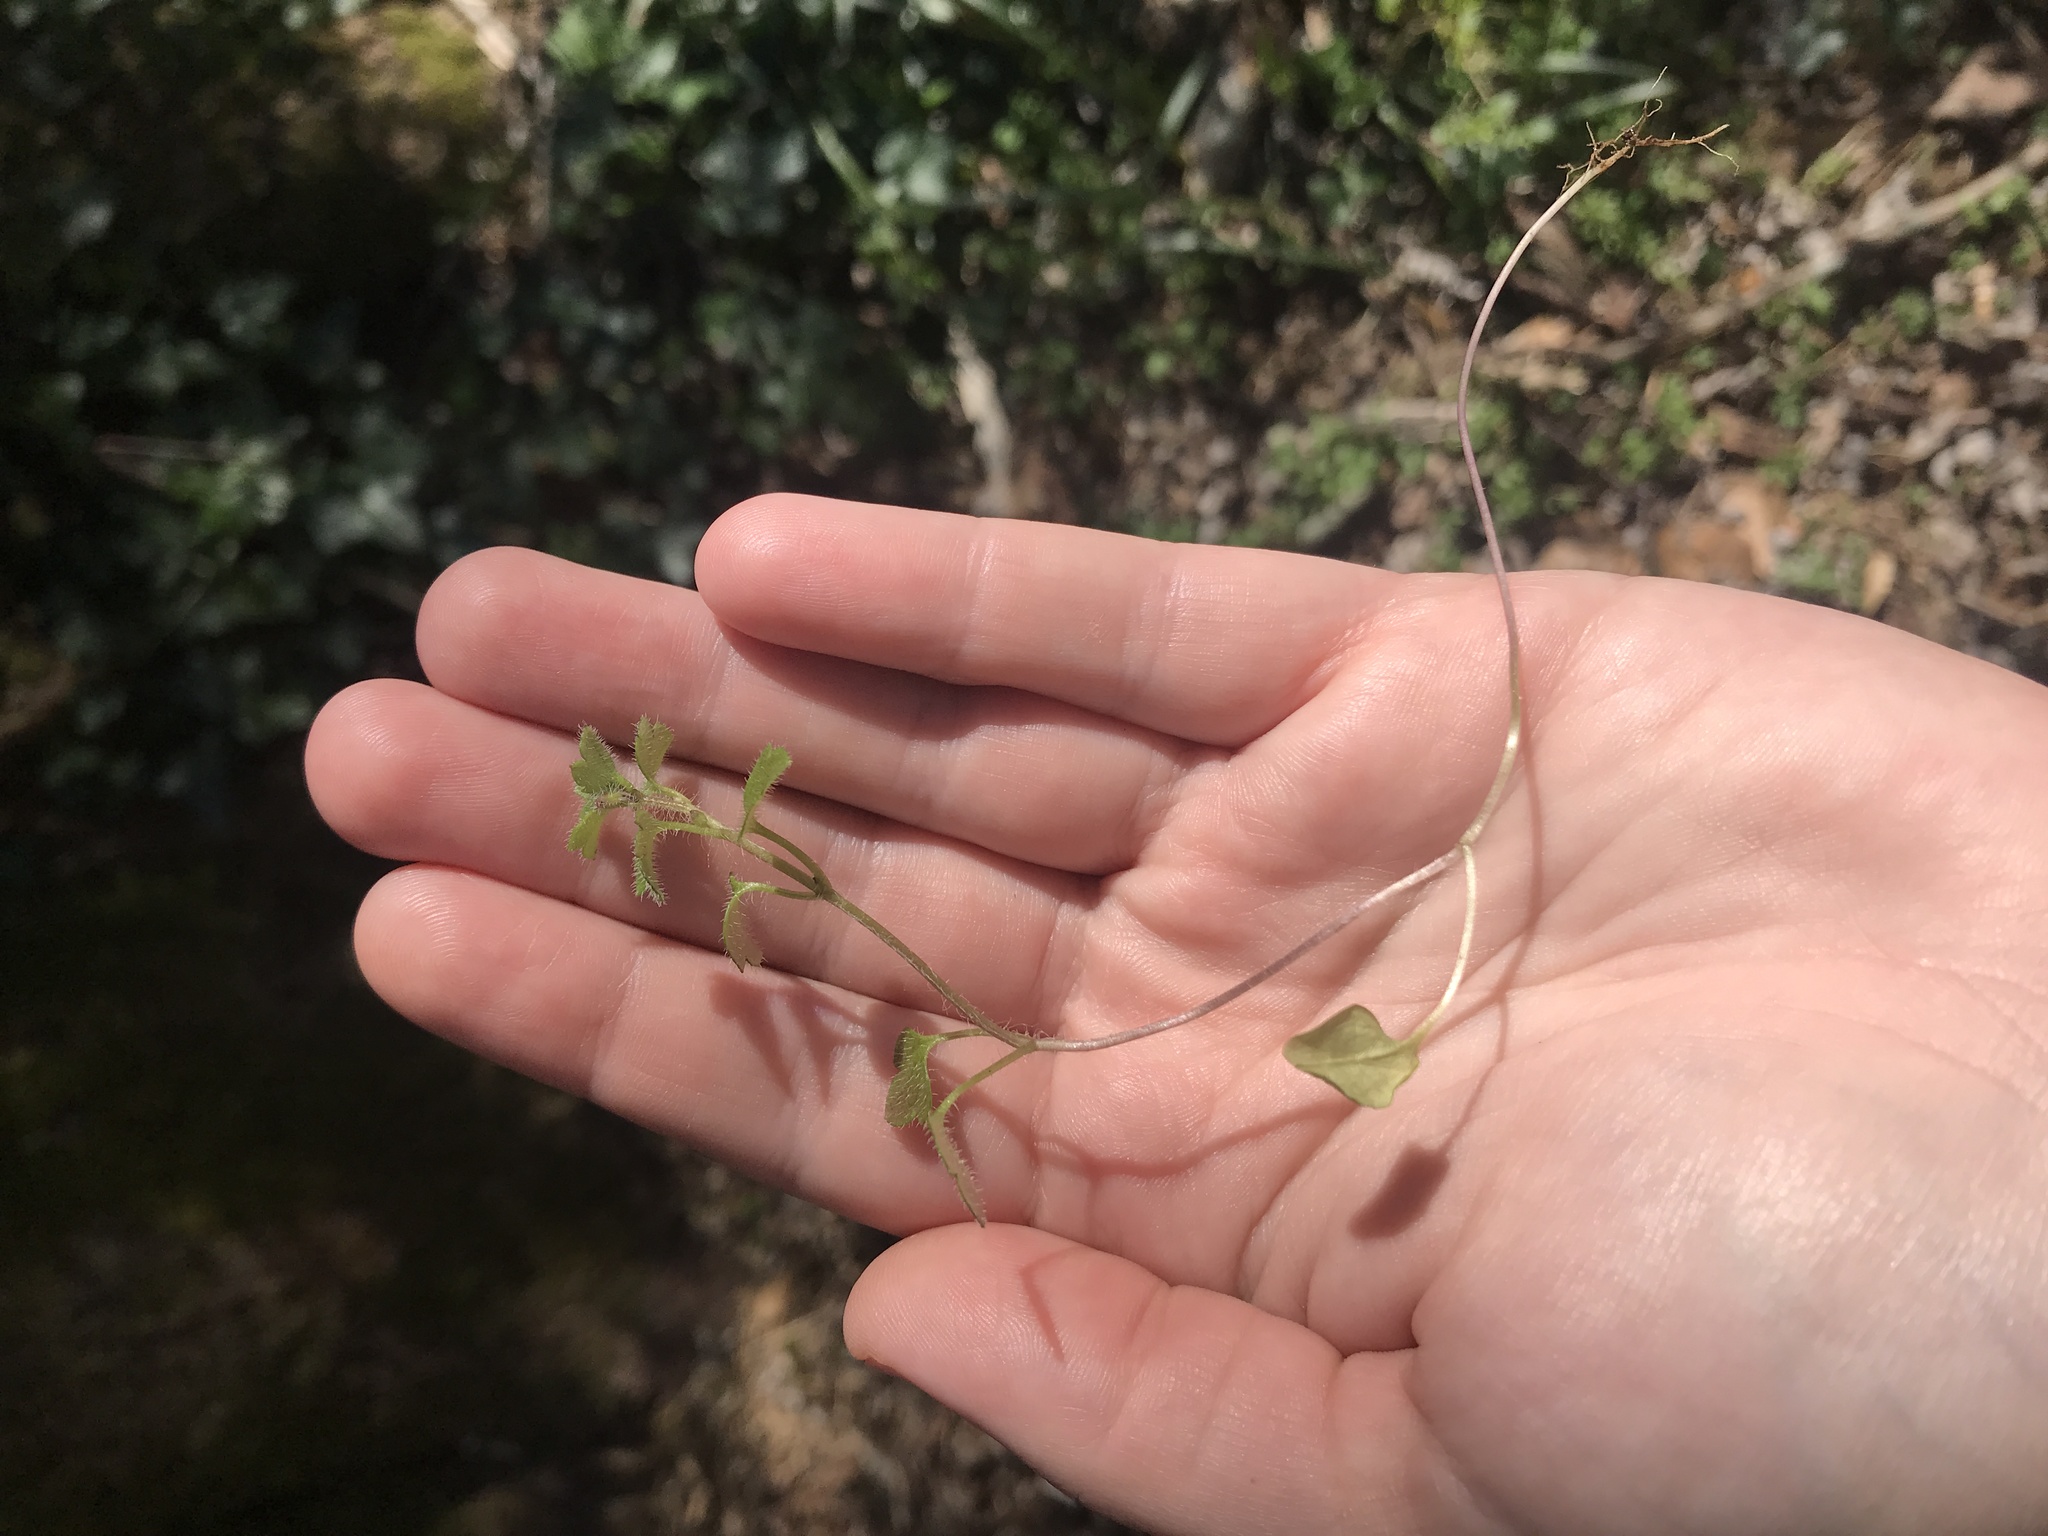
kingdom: Plantae
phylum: Tracheophyta
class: Magnoliopsida
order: Lamiales
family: Plantaginaceae
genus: Veronica
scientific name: Veronica hederifolia
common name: Ivy-leaved speedwell
